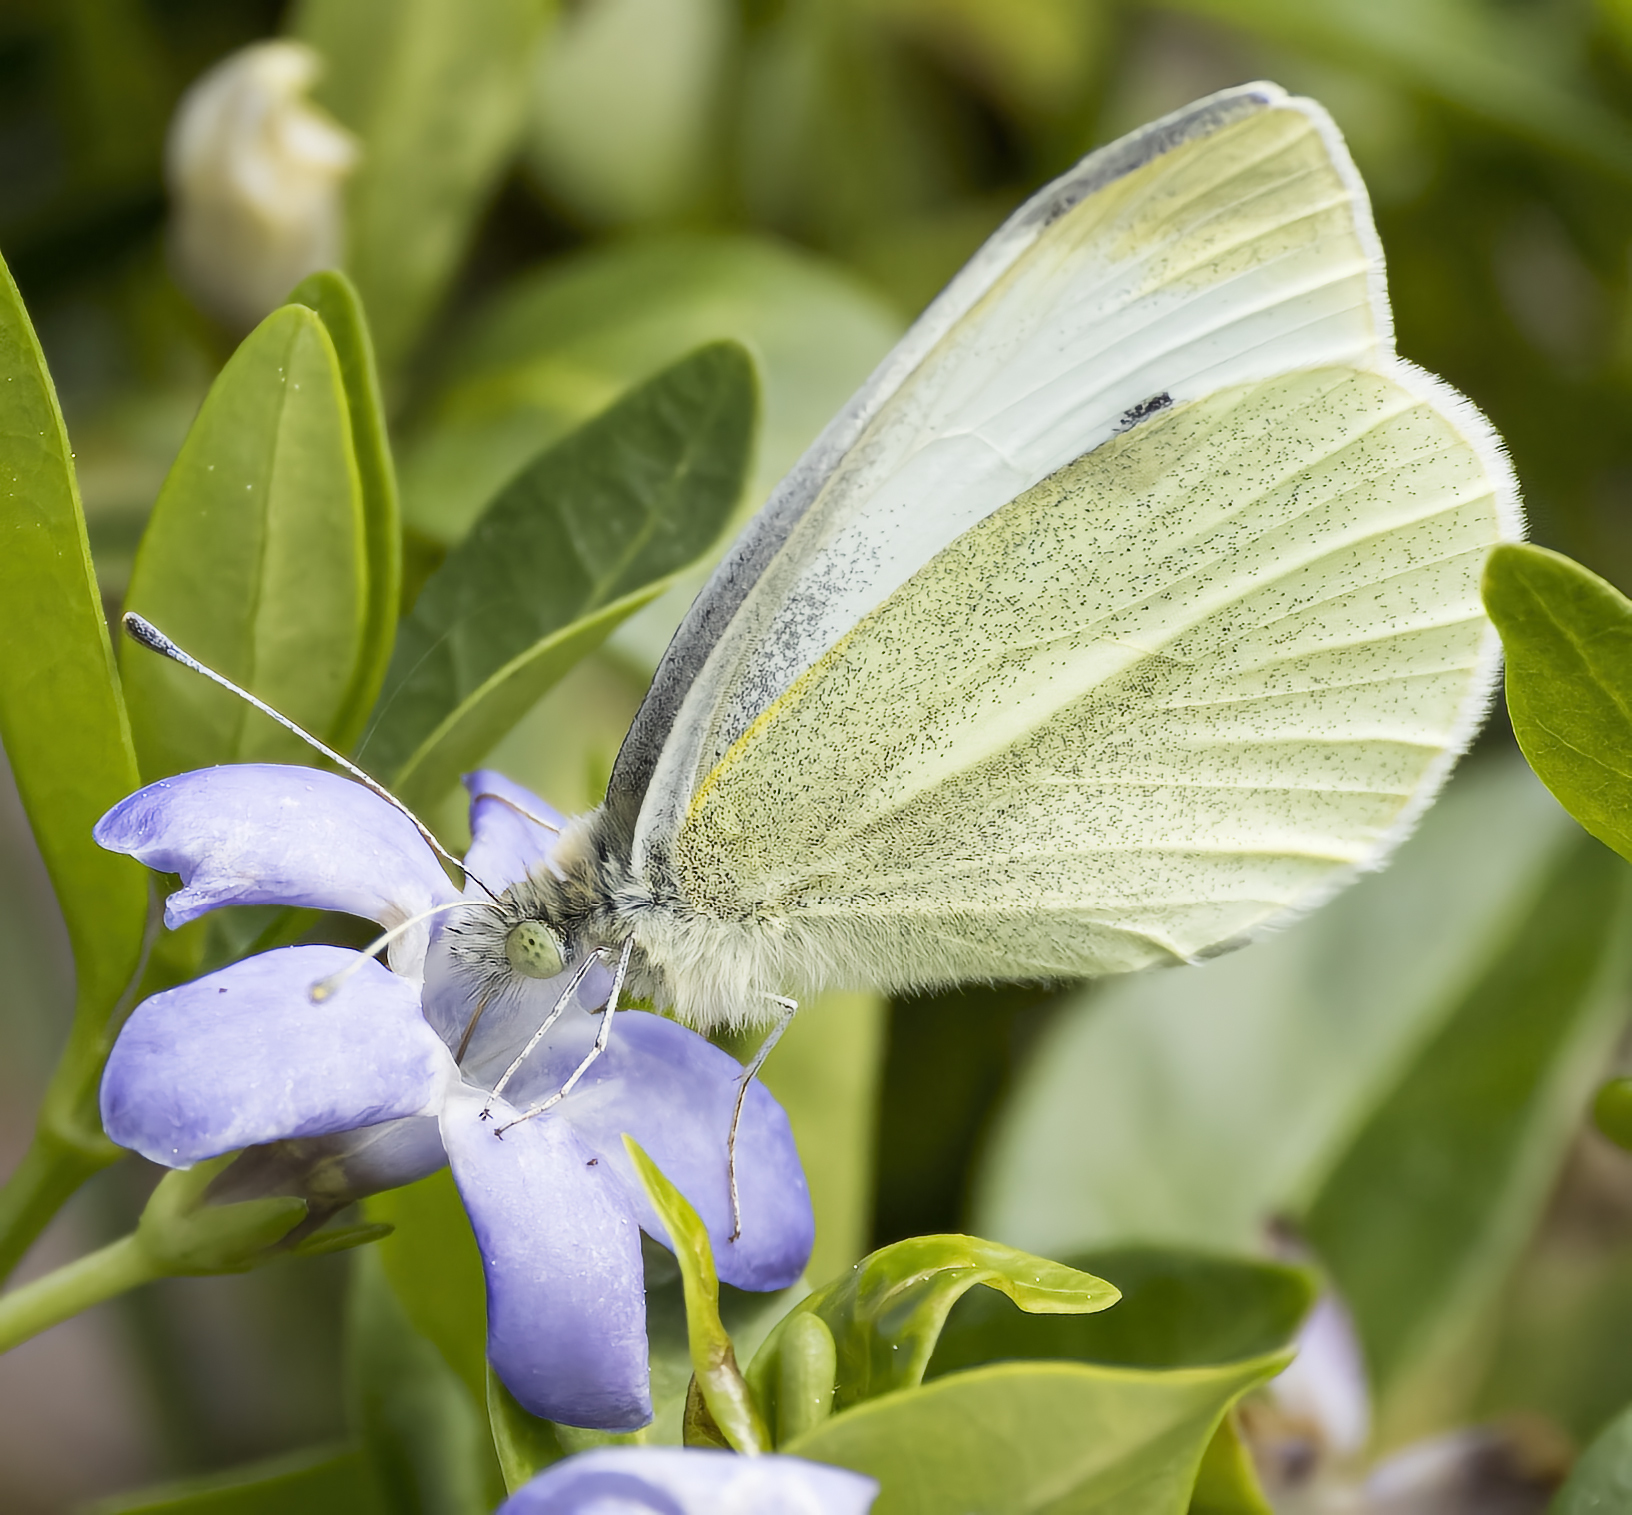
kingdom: Animalia
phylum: Arthropoda
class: Insecta
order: Lepidoptera
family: Pieridae
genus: Pieris
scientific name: Pieris rapae
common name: Small white
